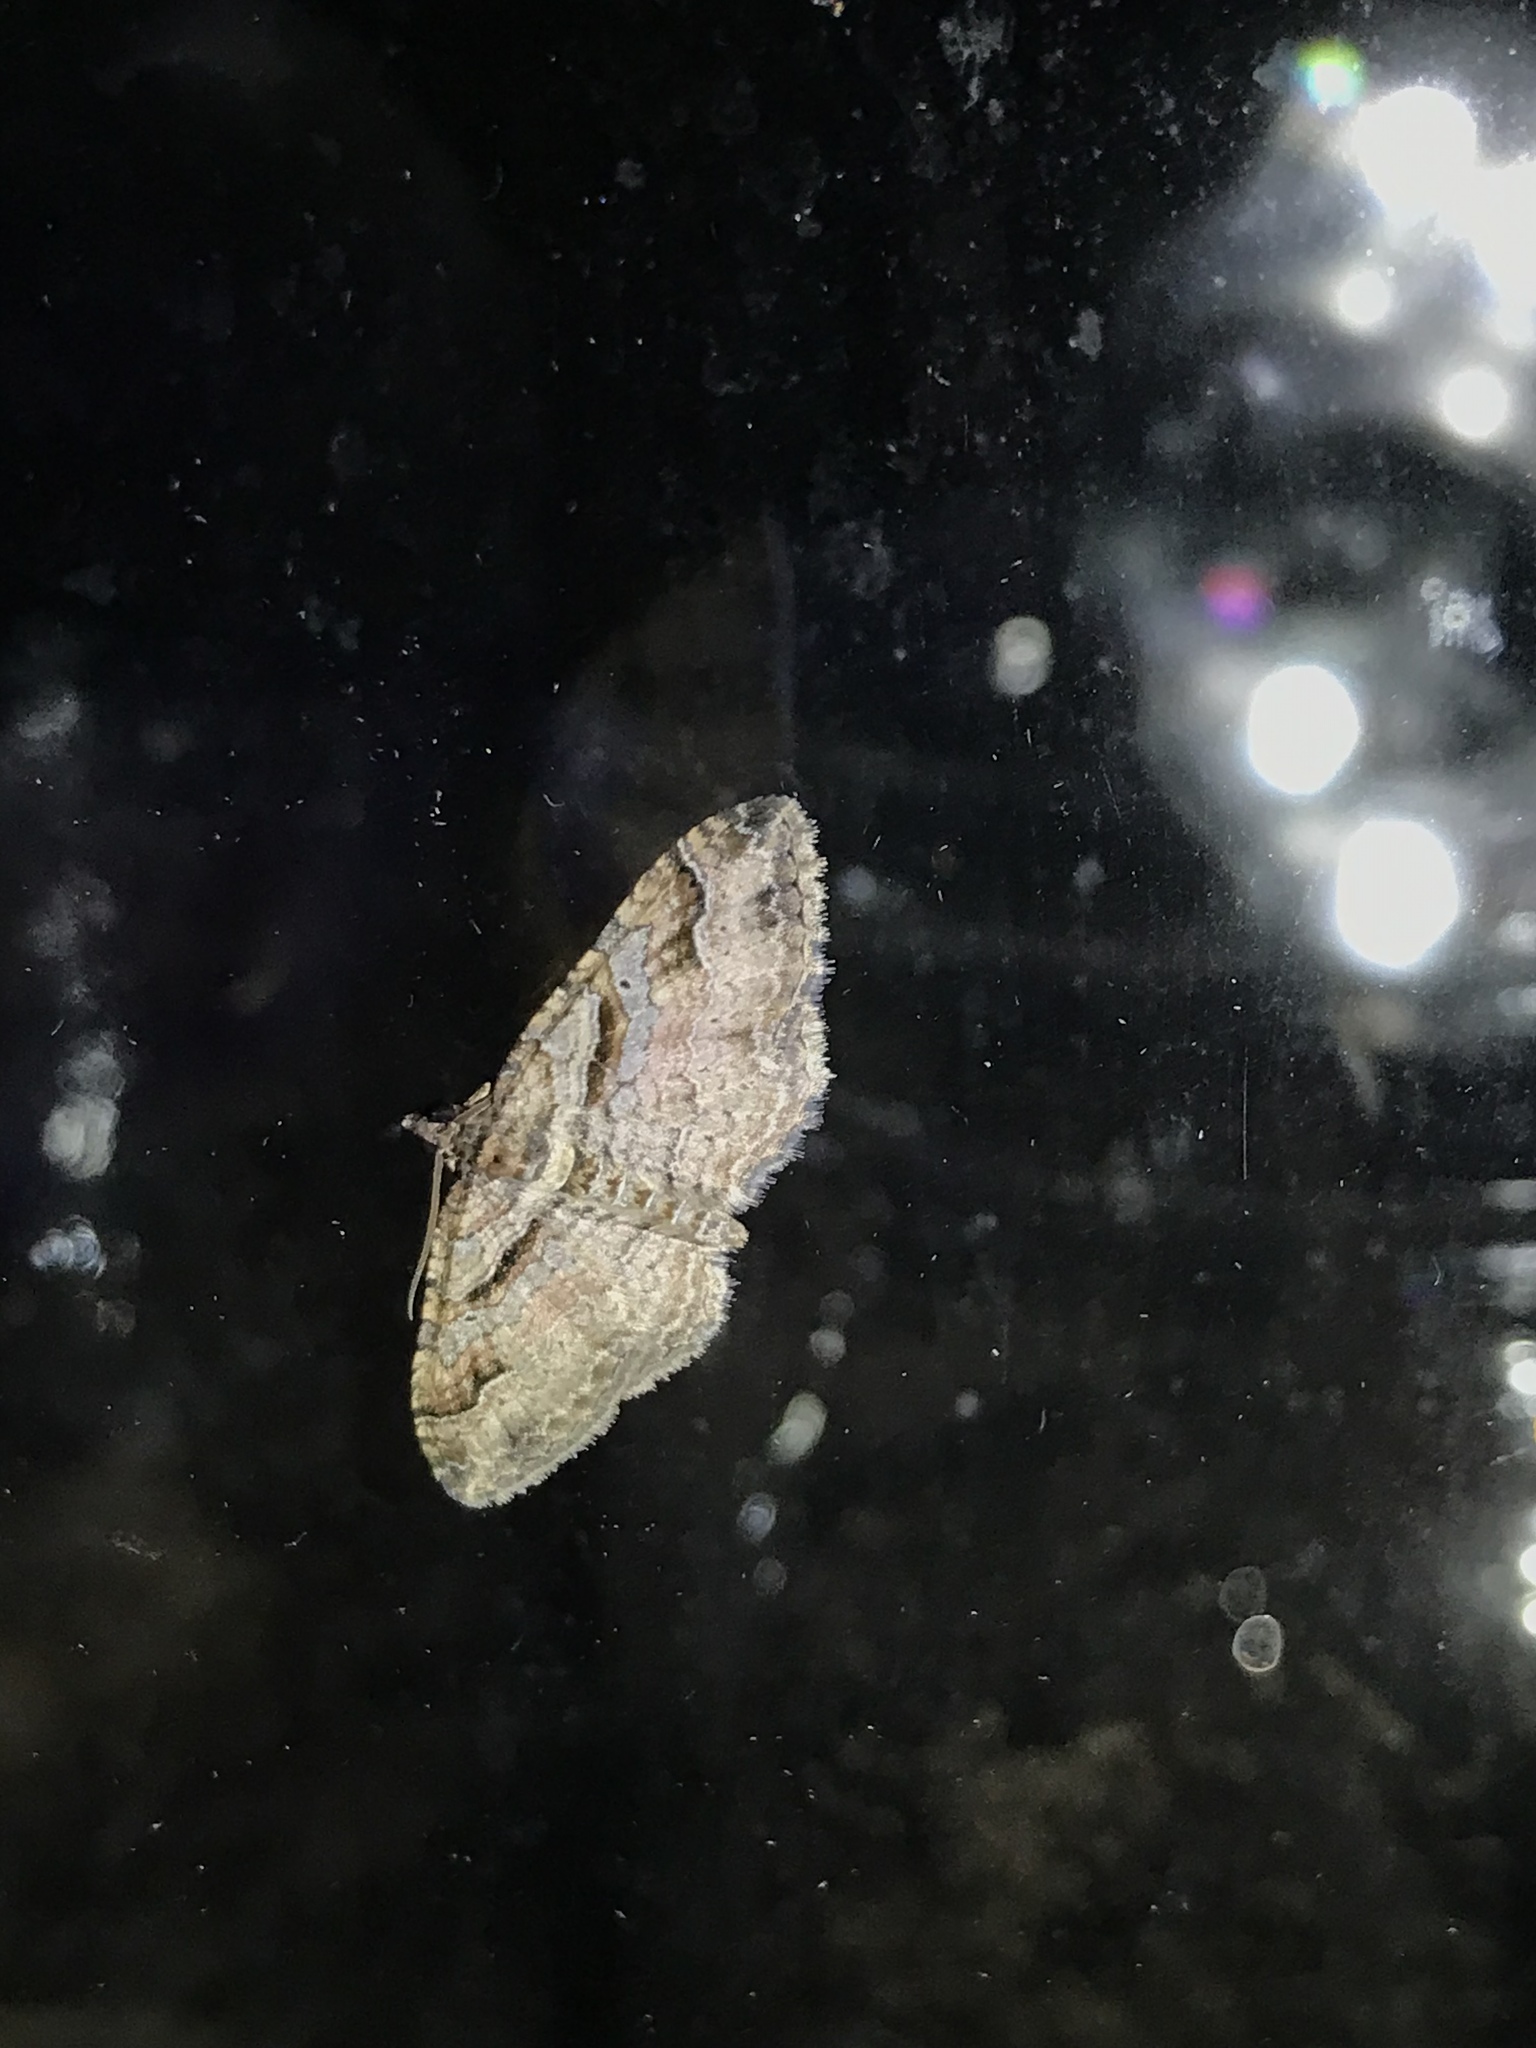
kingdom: Animalia
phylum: Arthropoda
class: Insecta
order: Lepidoptera
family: Geometridae
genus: Costaconvexa
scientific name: Costaconvexa centrostrigaria
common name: Bent-line carpet
